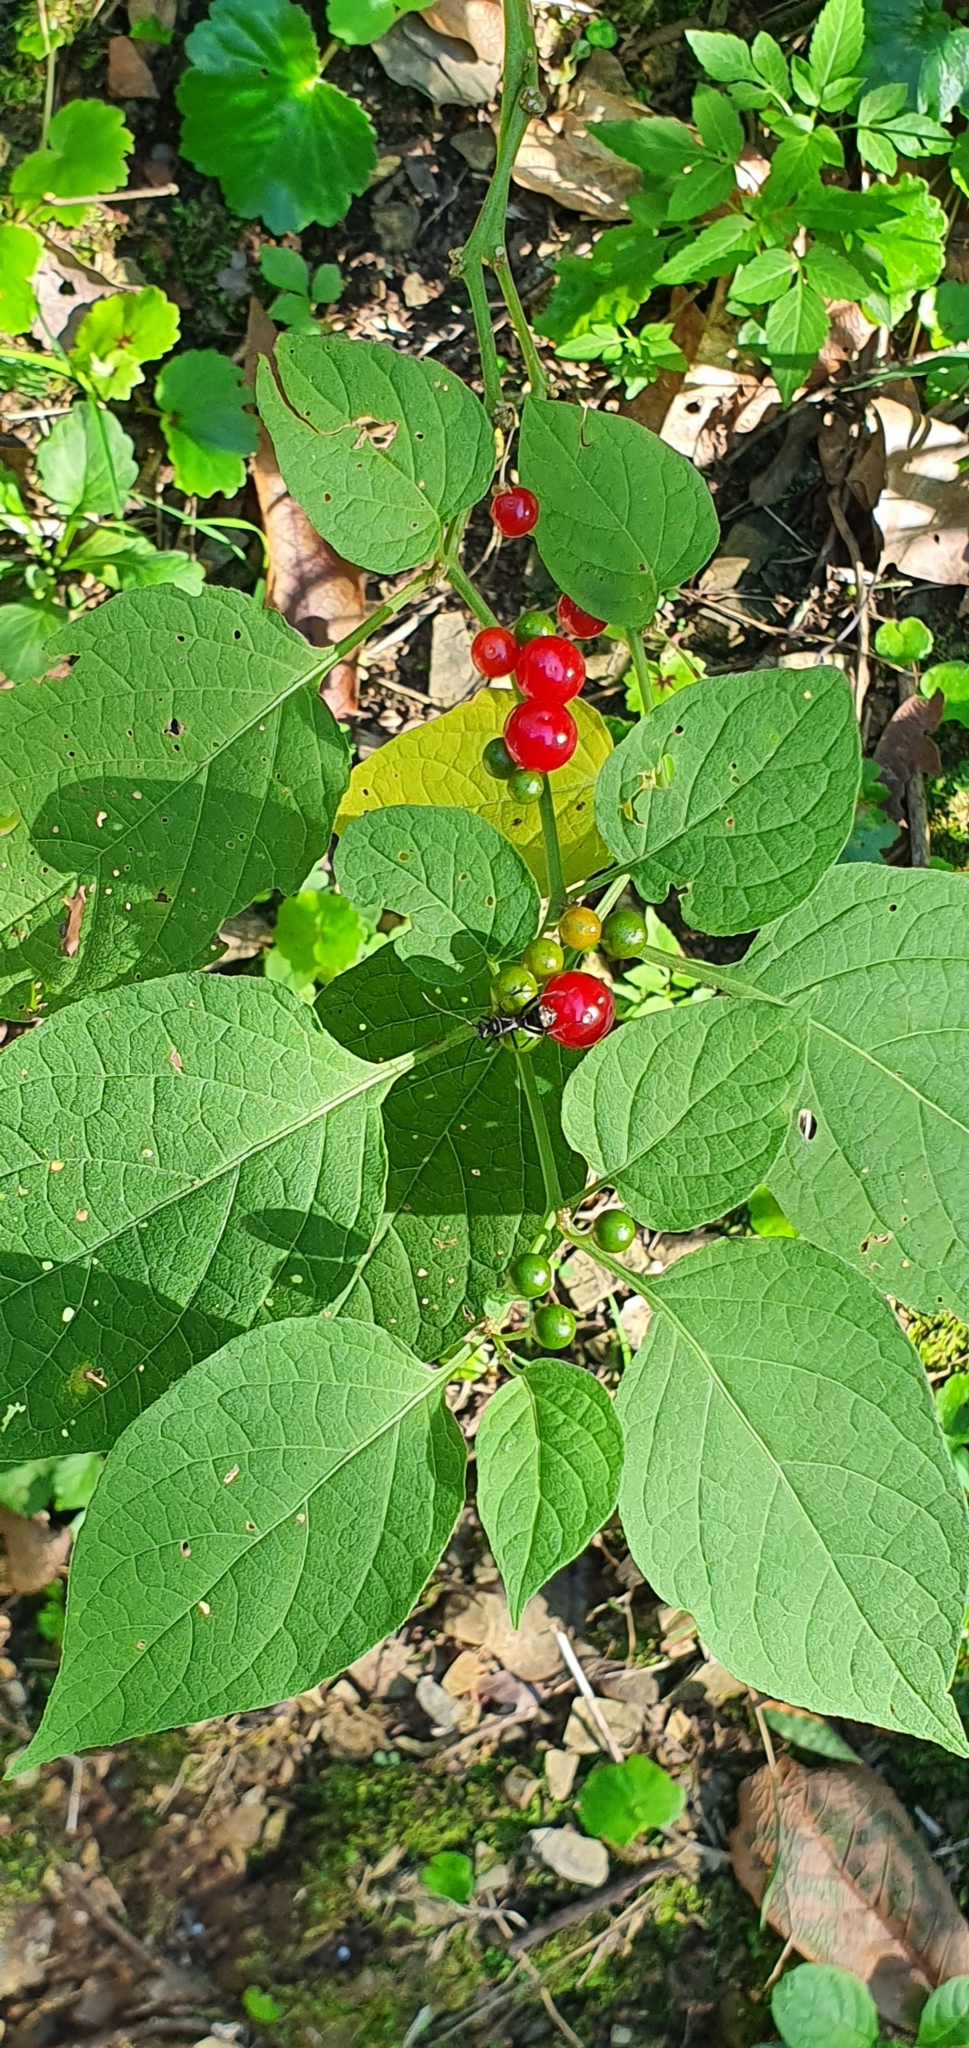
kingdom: Plantae
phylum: Tracheophyta
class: Magnoliopsida
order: Solanales
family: Solanaceae
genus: Witheringia
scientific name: Witheringia mexicana
